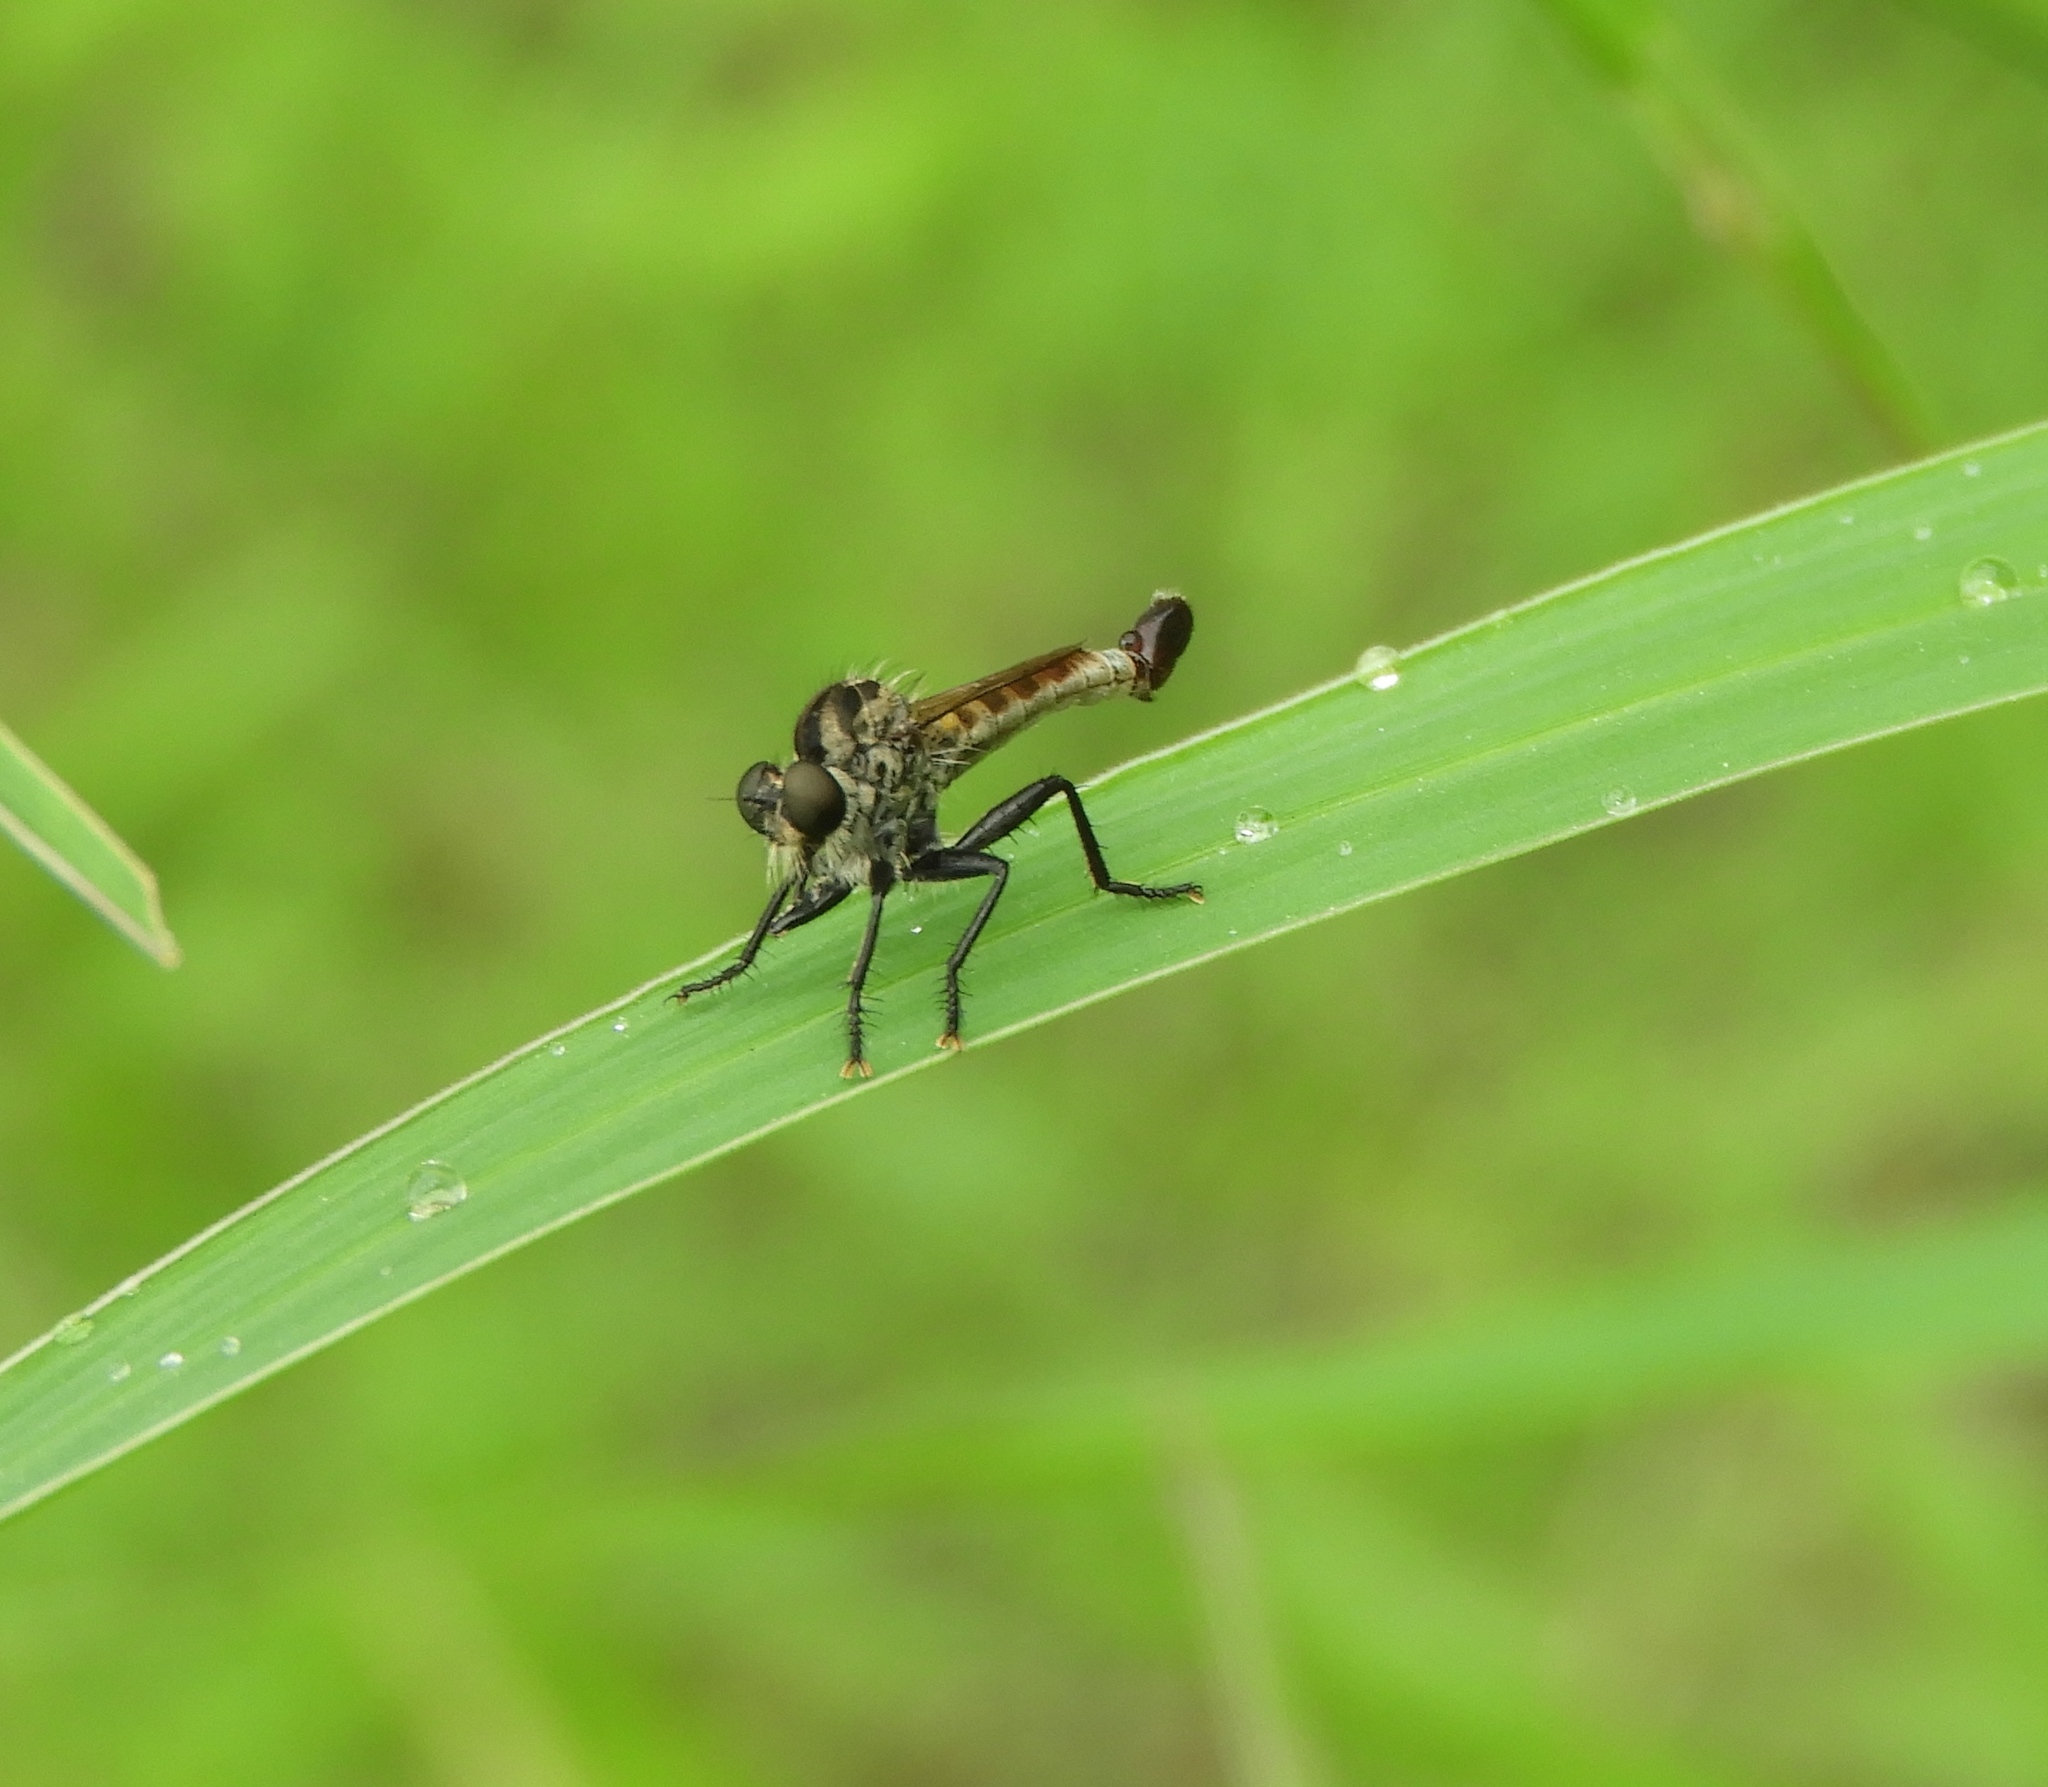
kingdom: Animalia
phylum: Arthropoda
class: Insecta
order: Diptera
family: Asilidae
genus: Efferia
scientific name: Efferia
